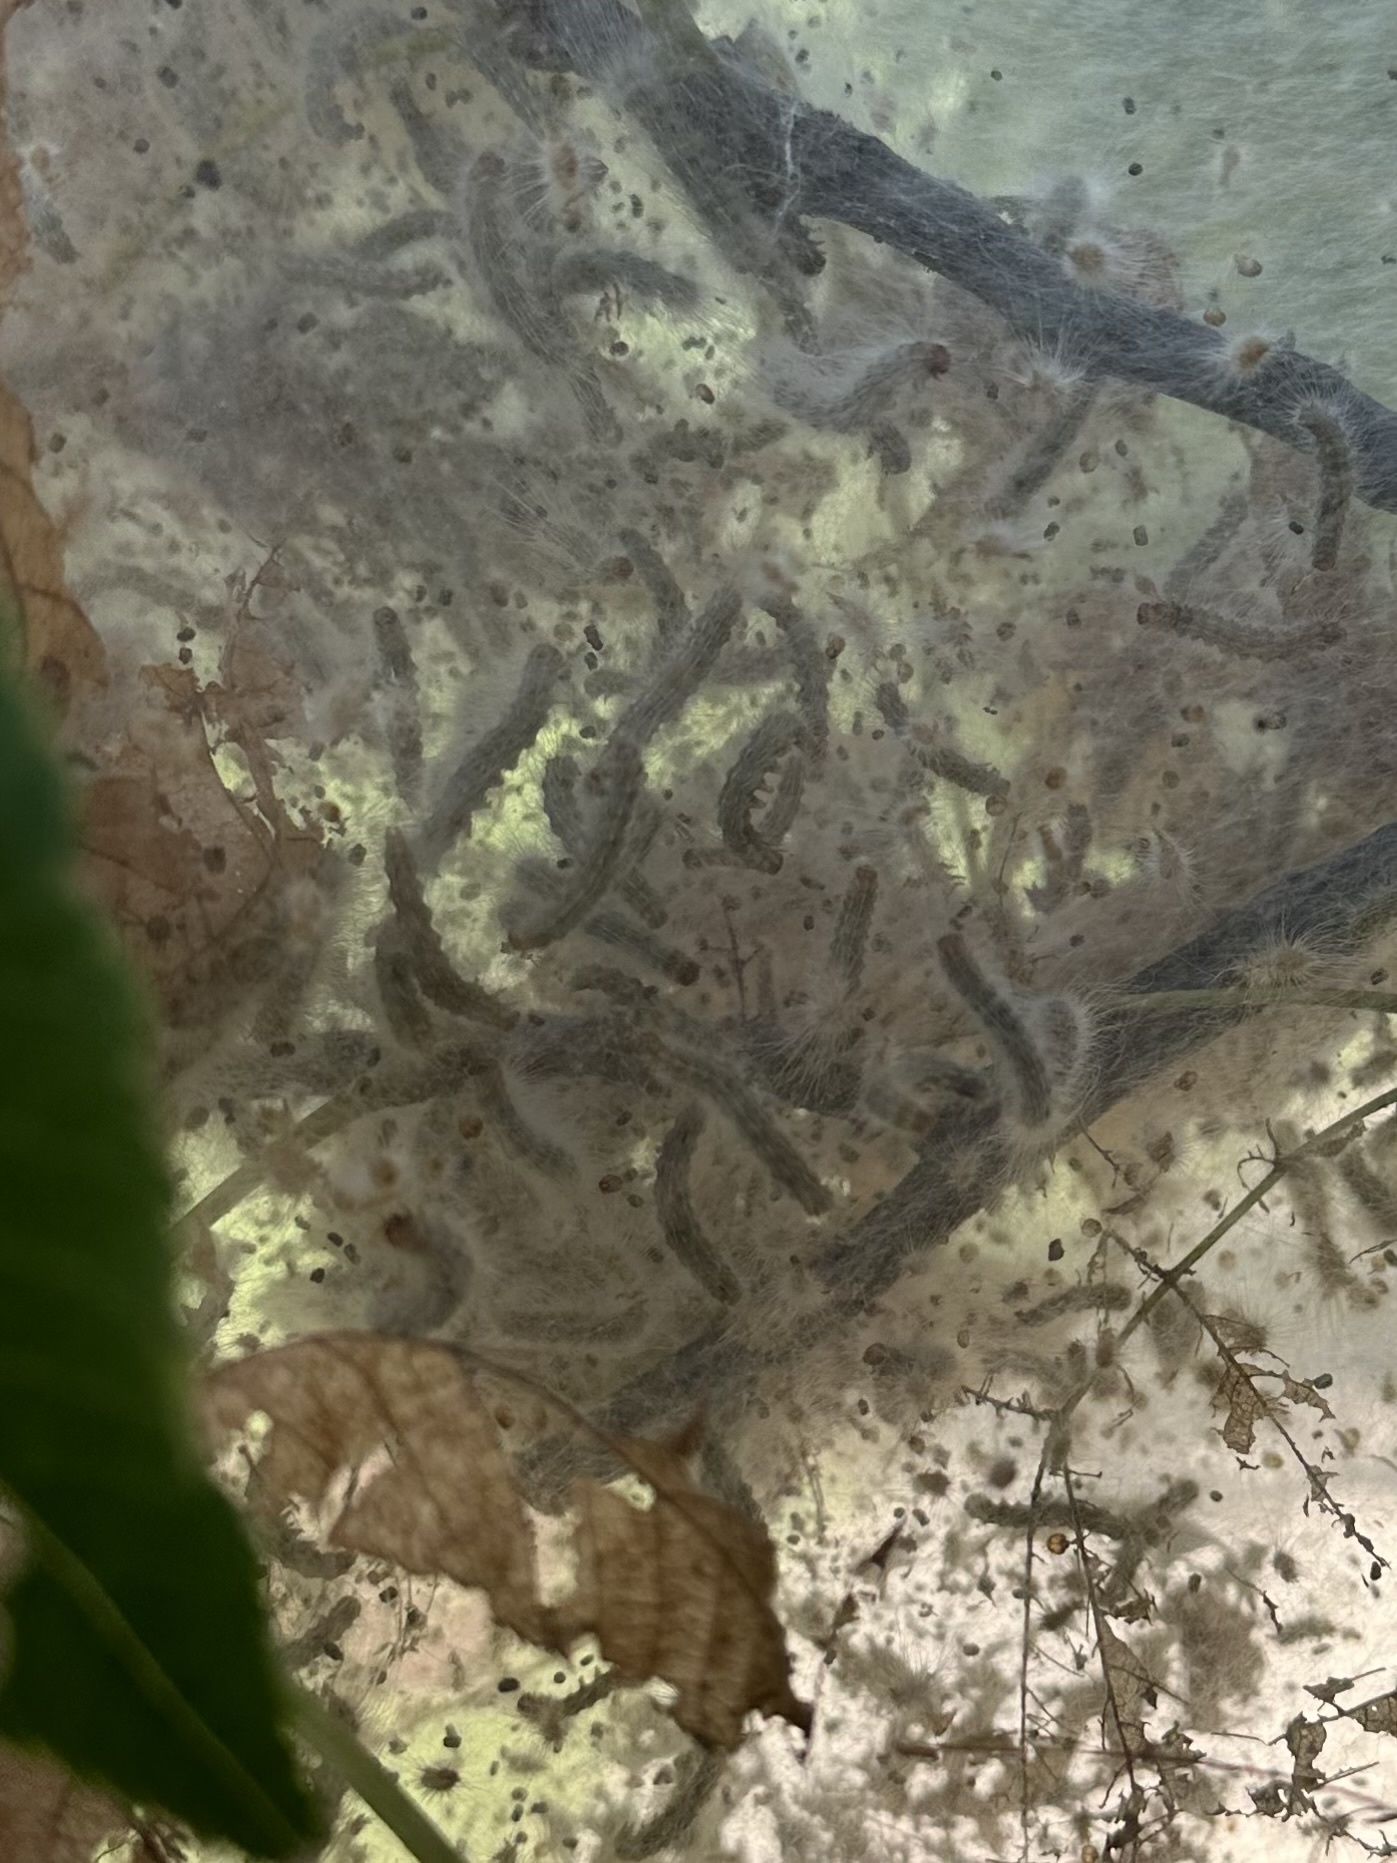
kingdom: Animalia
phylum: Arthropoda
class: Insecta
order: Lepidoptera
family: Erebidae
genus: Hyphantria
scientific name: Hyphantria cunea
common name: American white moth
